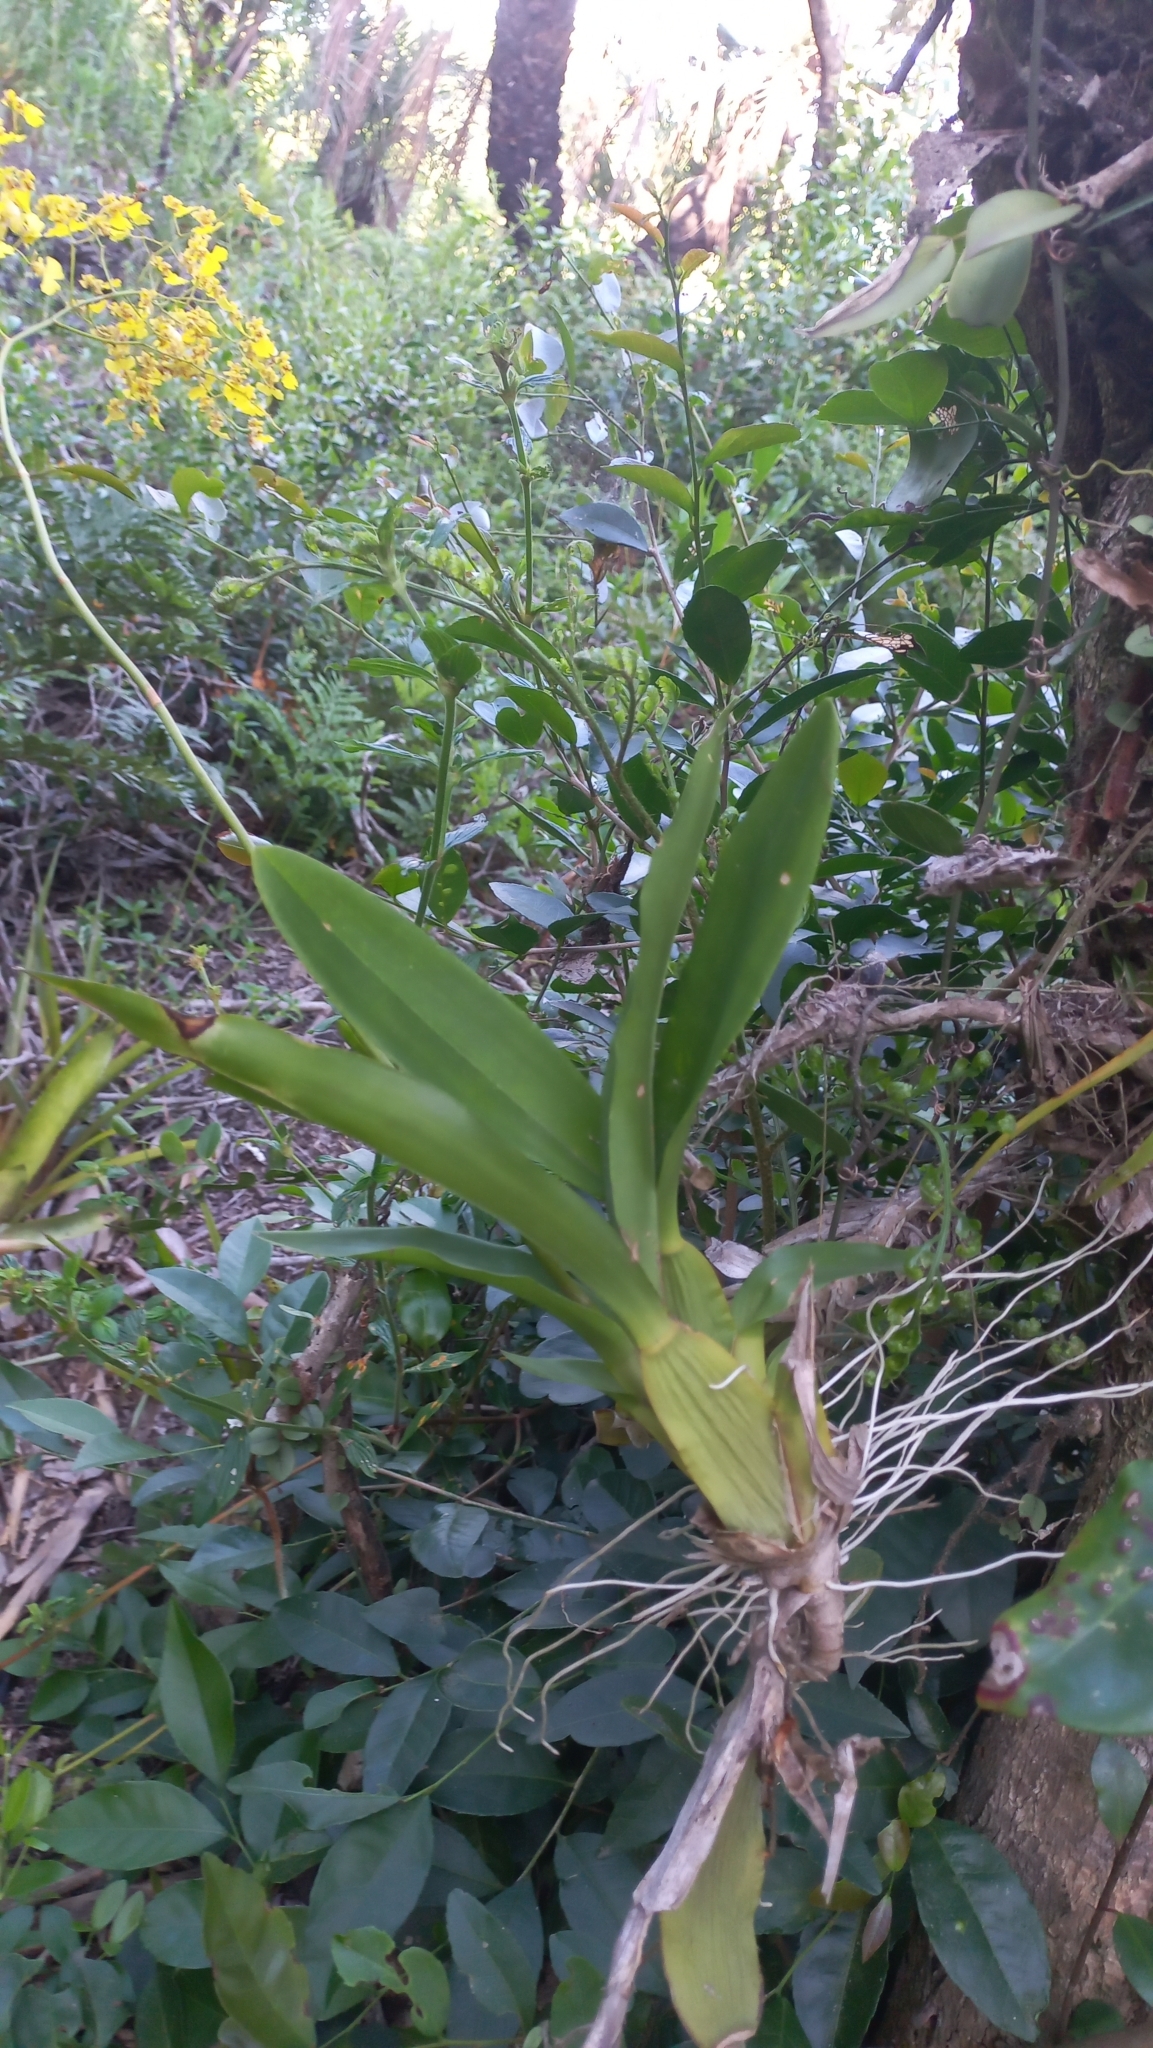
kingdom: Plantae
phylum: Tracheophyta
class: Liliopsida
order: Asparagales
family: Orchidaceae
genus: Gomesa
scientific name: Gomesa flexuosa
